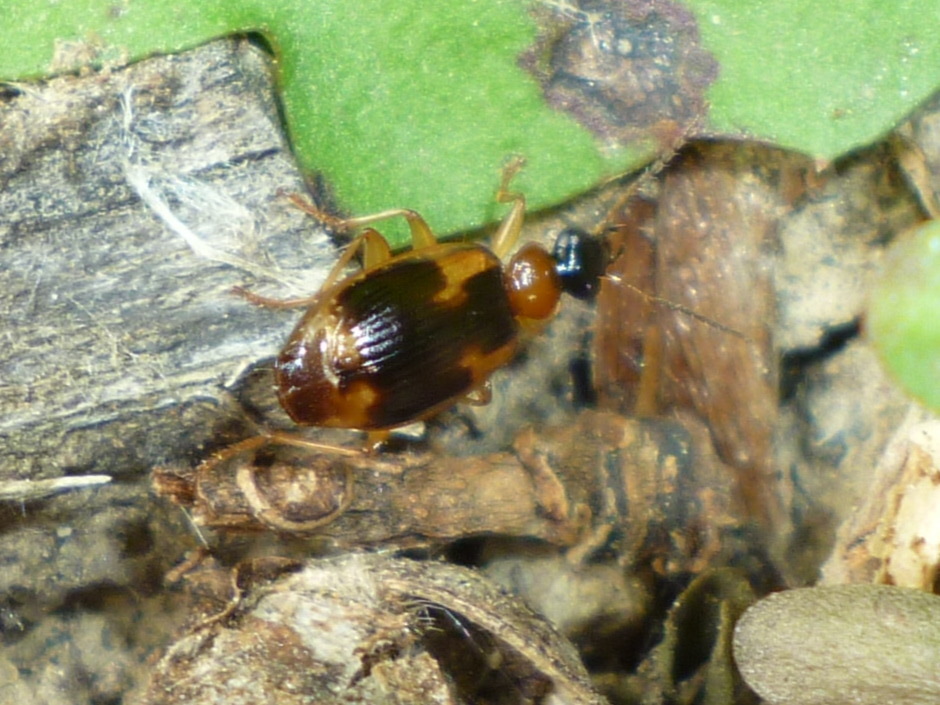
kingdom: Animalia
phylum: Arthropoda
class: Insecta
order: Coleoptera
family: Carabidae
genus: Lebia
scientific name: Lebia analis
